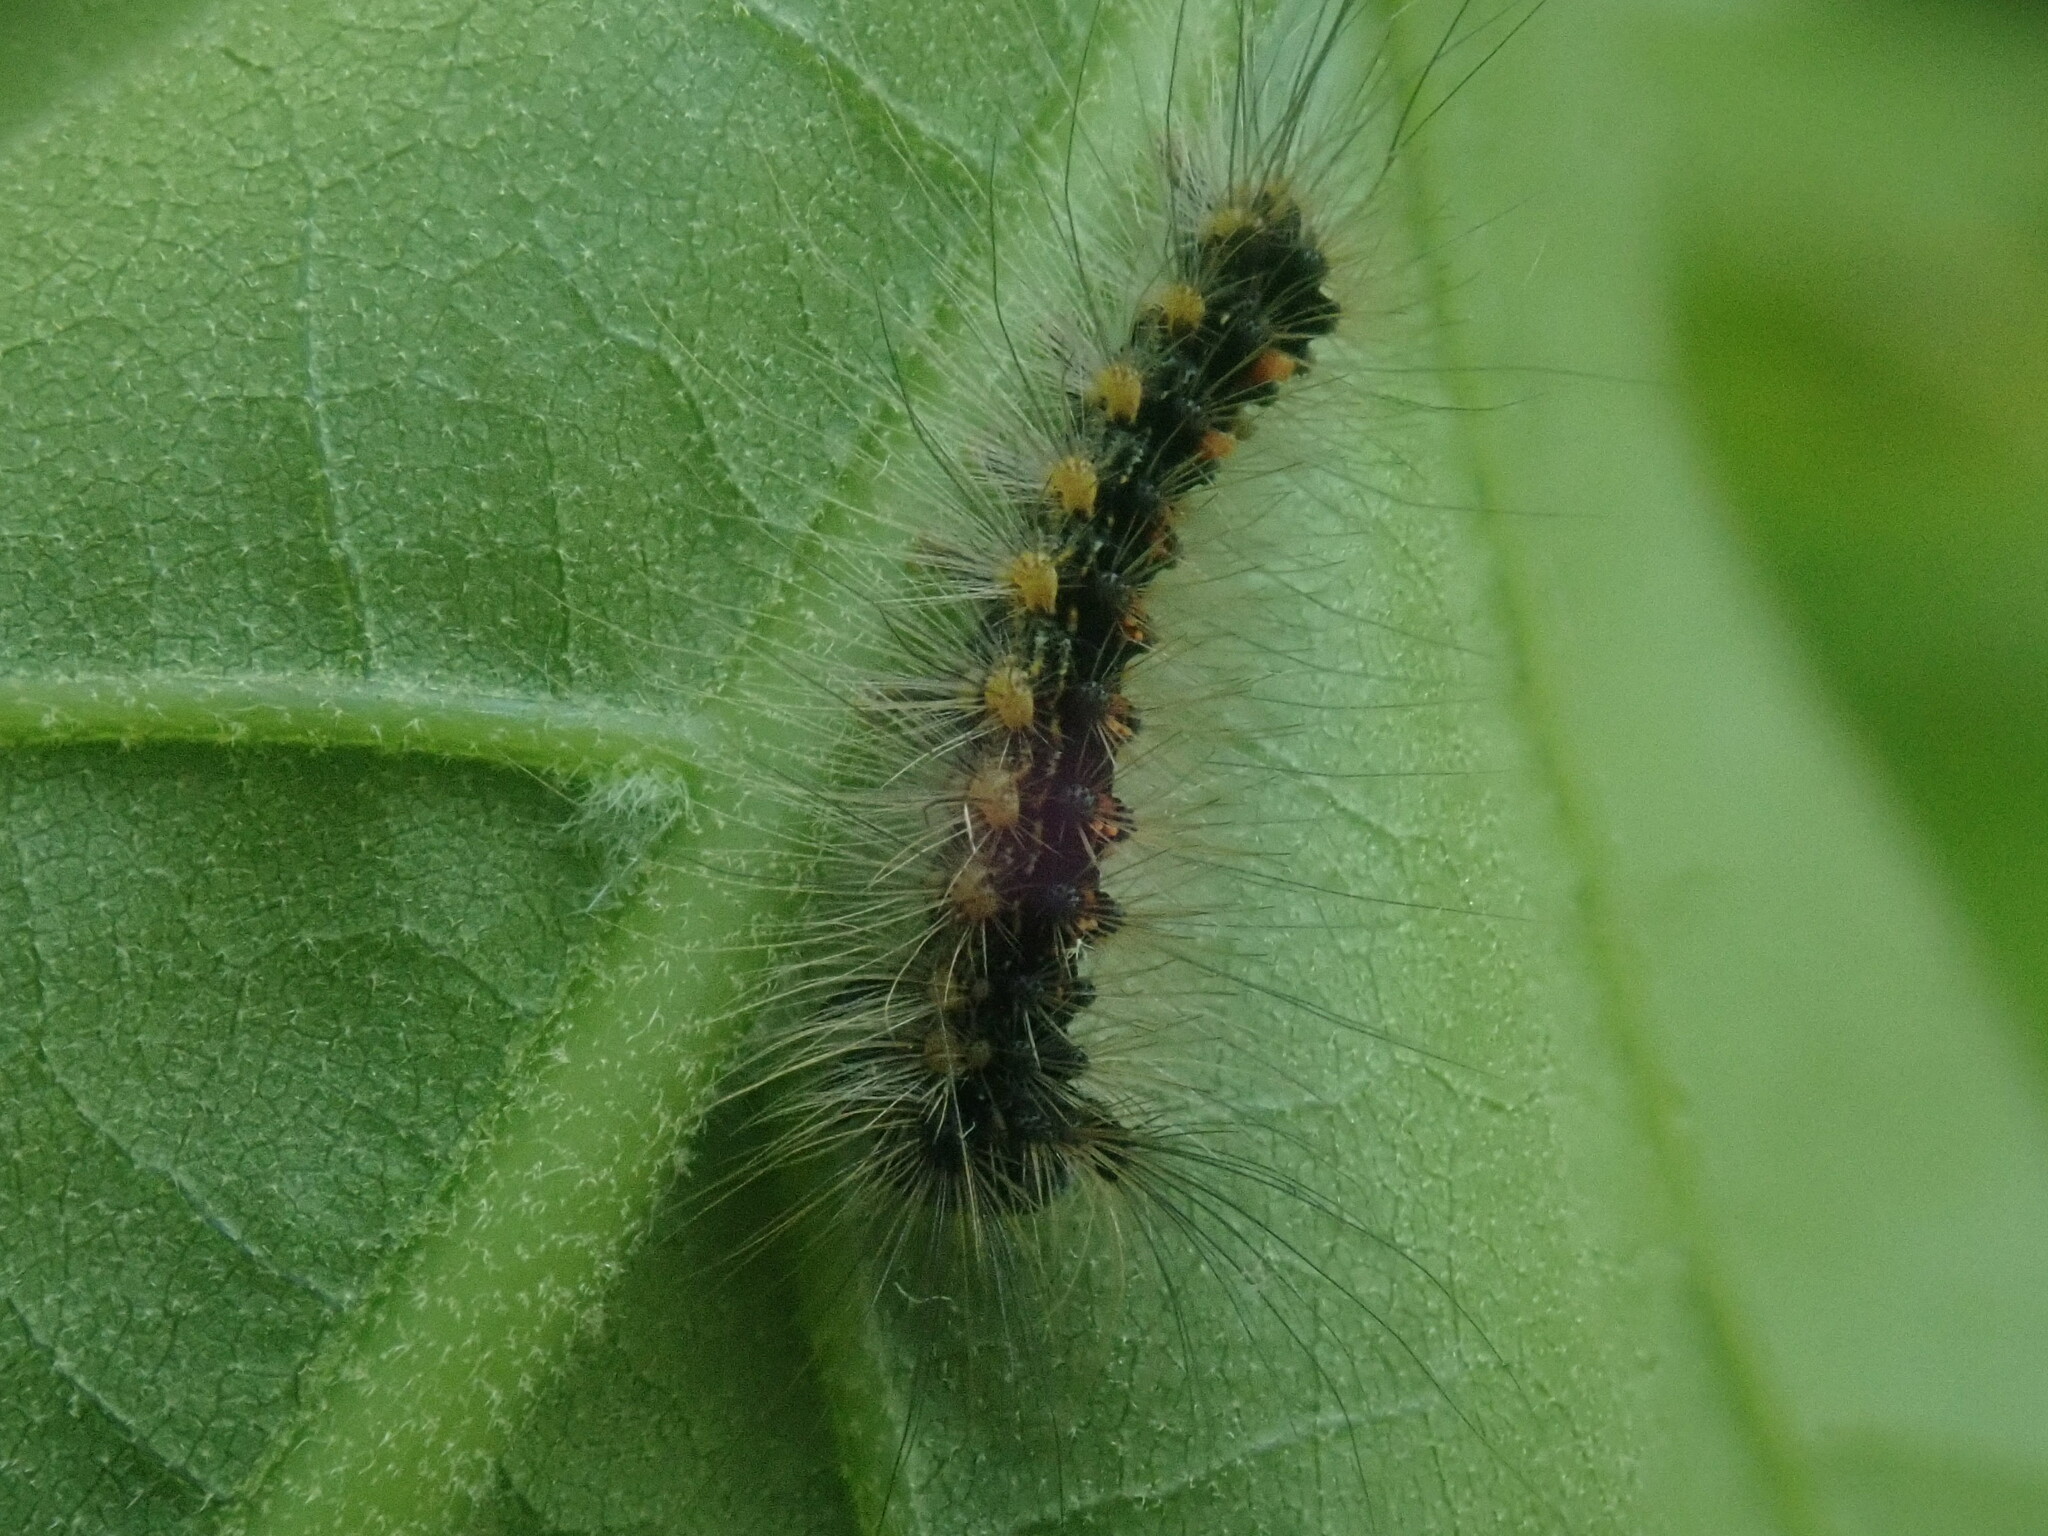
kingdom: Animalia
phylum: Arthropoda
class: Insecta
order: Lepidoptera
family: Erebidae
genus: Lymantria
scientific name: Lymantria dispar
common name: Gypsy moth
